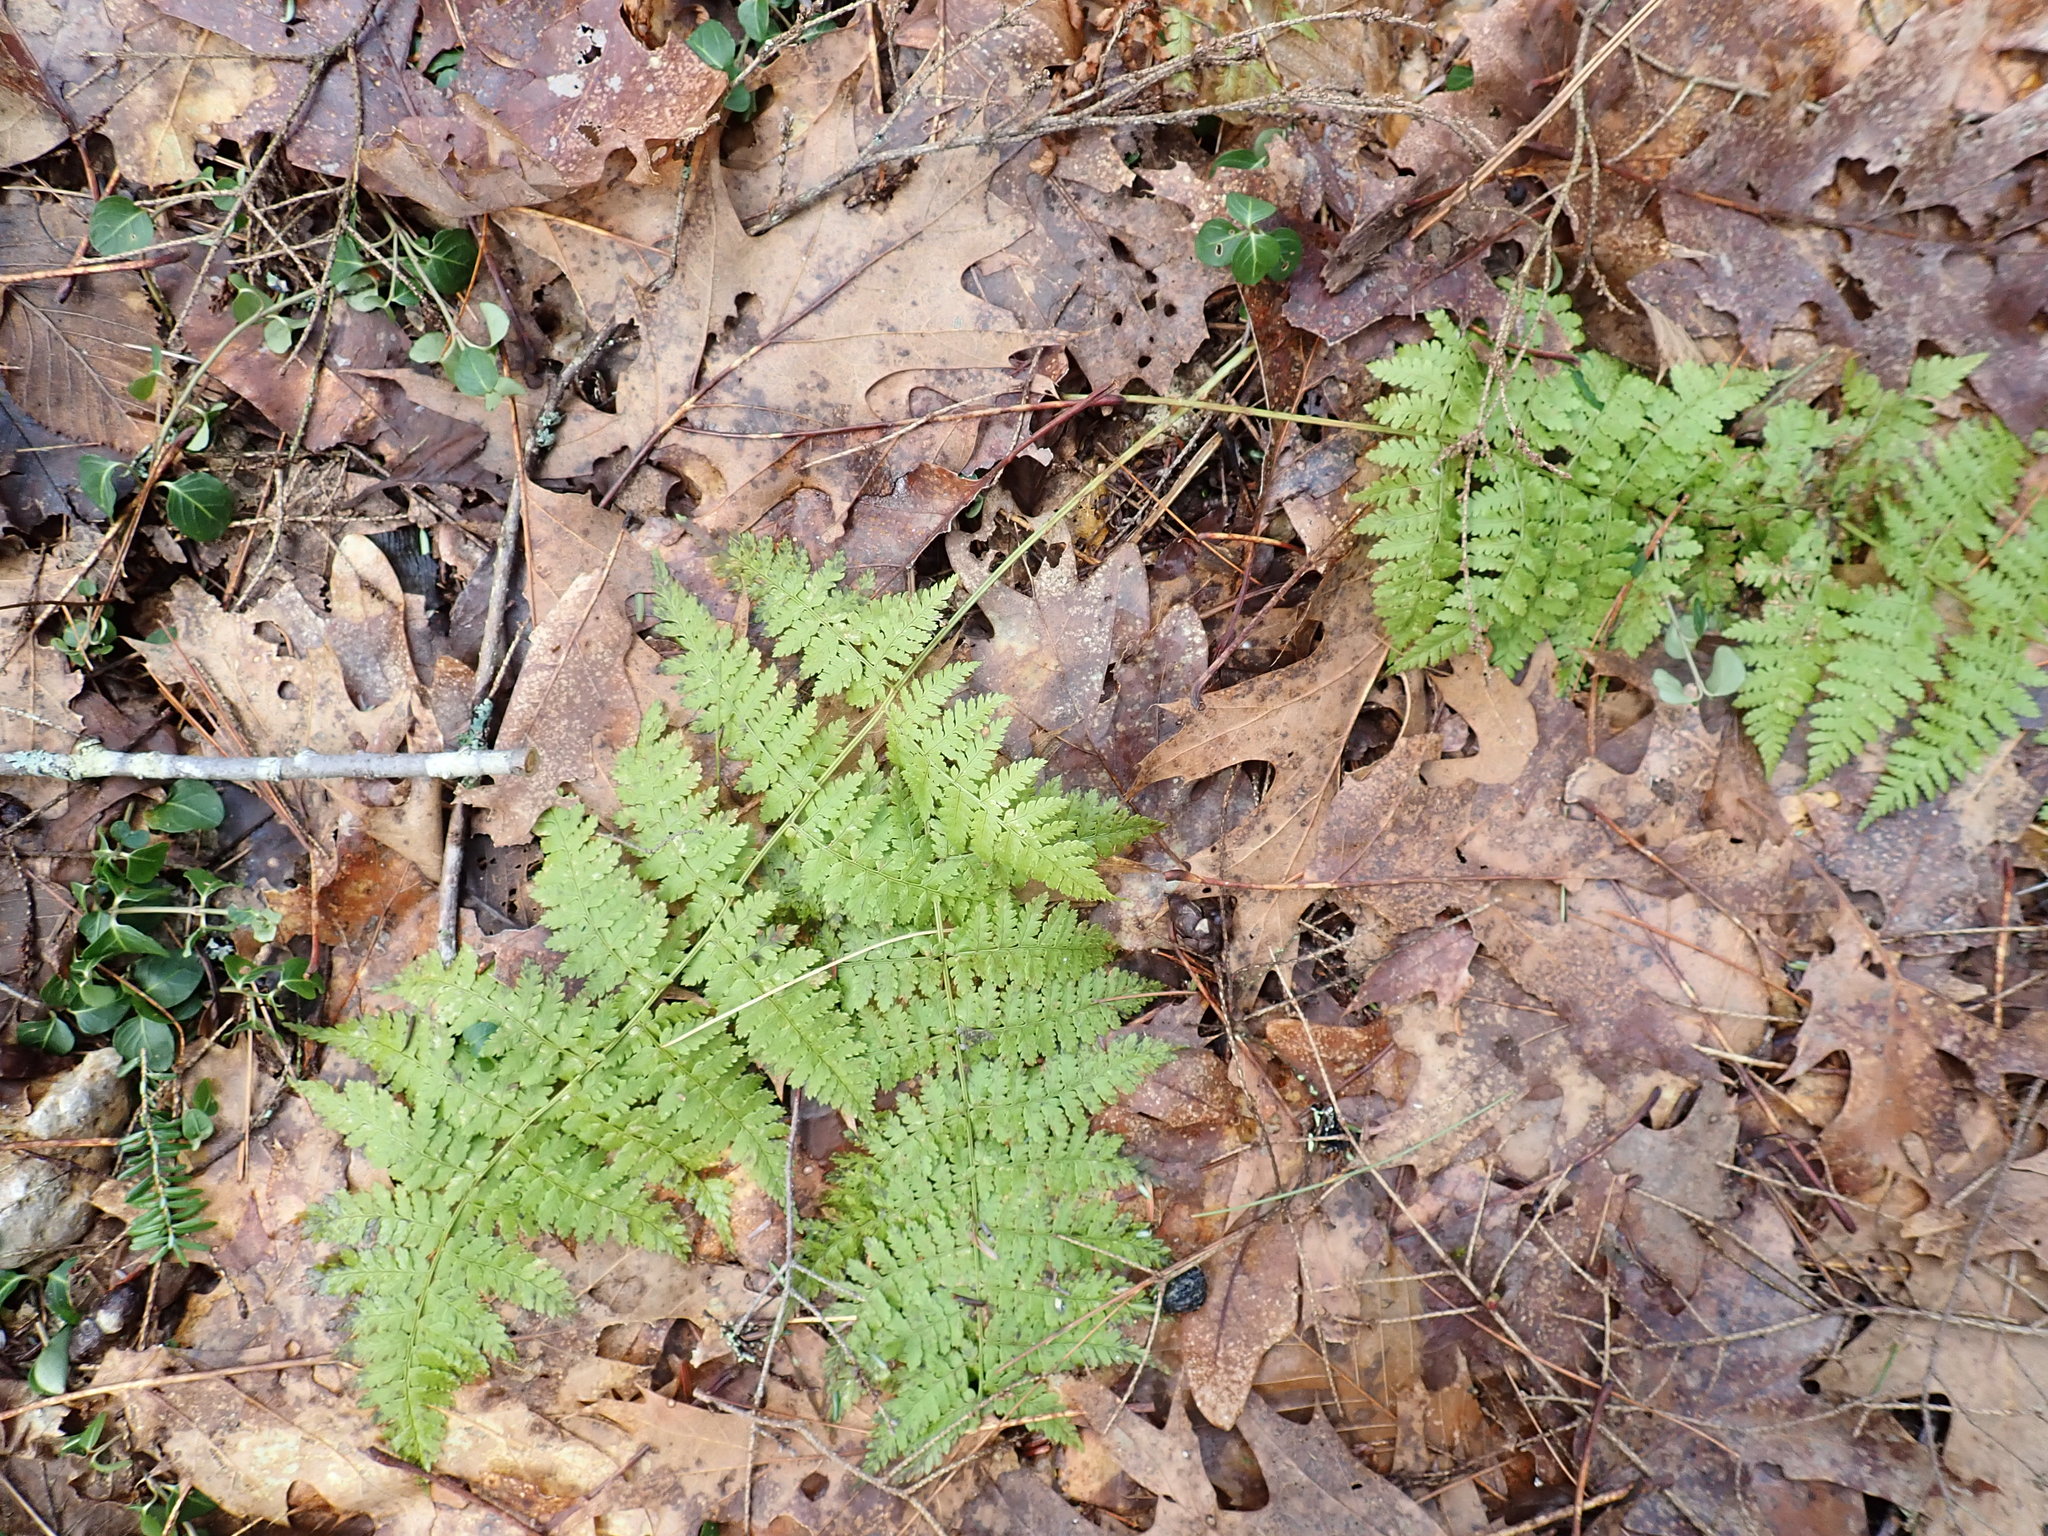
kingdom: Plantae
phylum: Tracheophyta
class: Polypodiopsida
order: Polypodiales
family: Dryopteridaceae
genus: Dryopteris
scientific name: Dryopteris intermedia
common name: Evergreen wood fern
